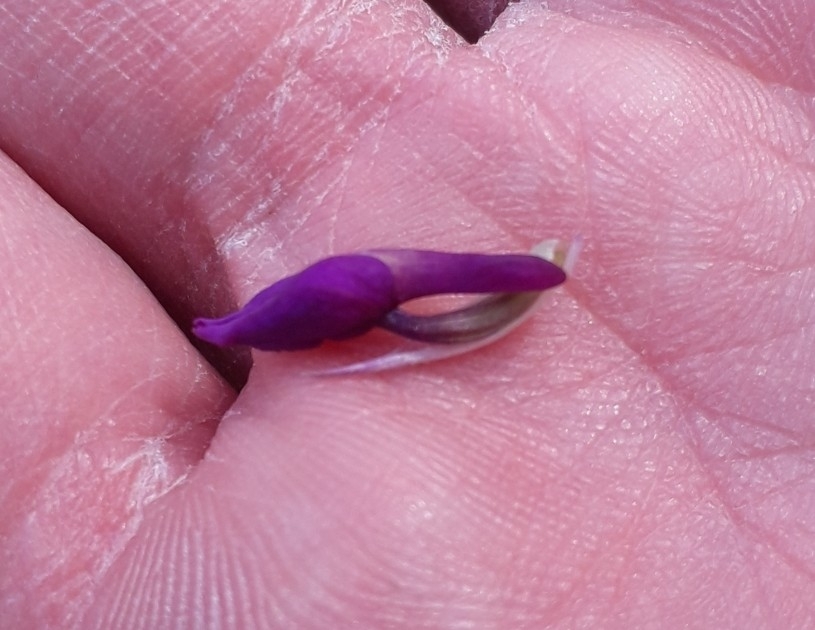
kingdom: Plantae
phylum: Tracheophyta
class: Liliopsida
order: Asparagales
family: Orchidaceae
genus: Anacamptis
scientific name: Anacamptis morio
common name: Green-winged orchid
